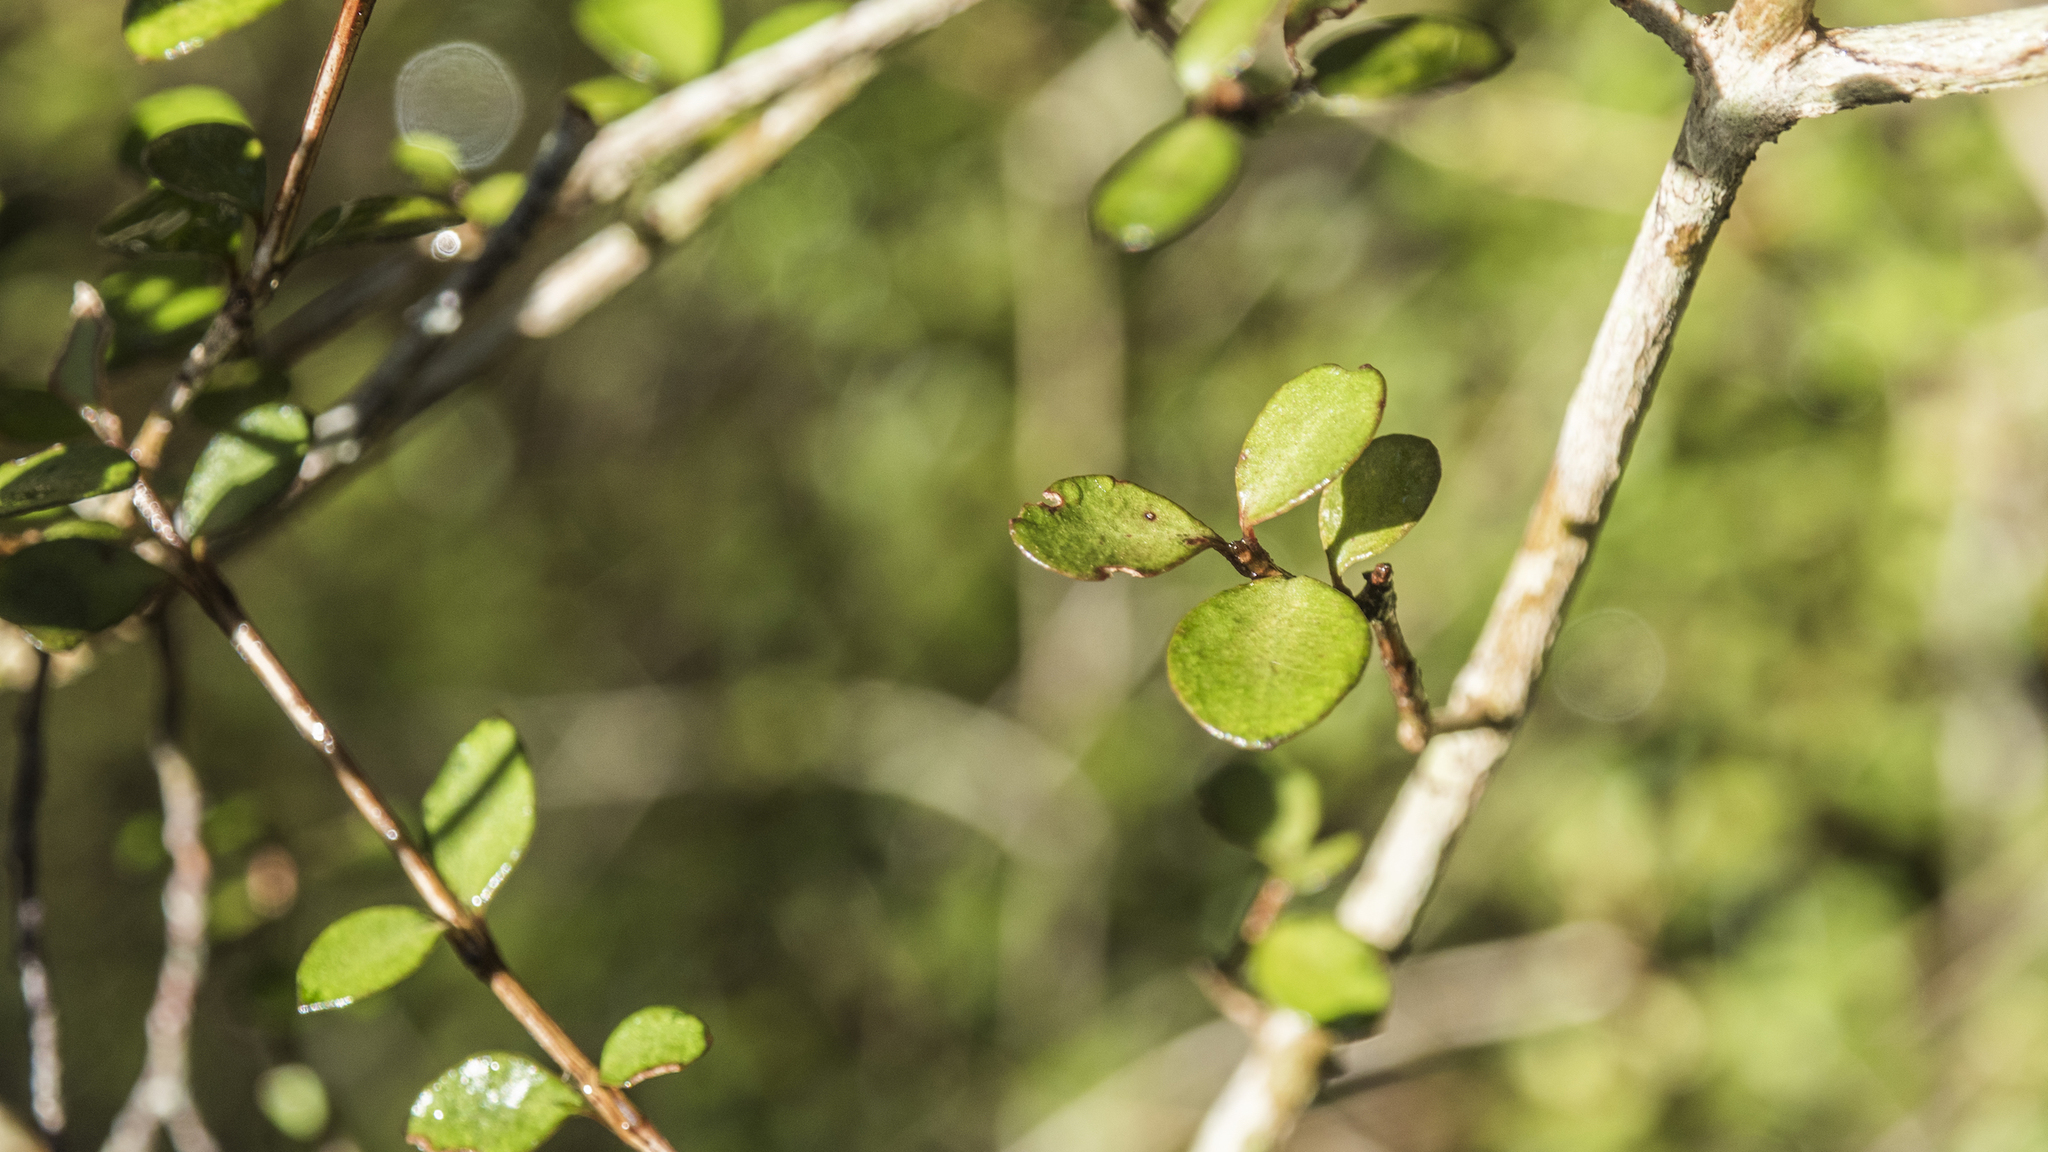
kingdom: Plantae
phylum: Tracheophyta
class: Magnoliopsida
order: Myrtales
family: Myrtaceae
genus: Neomyrtus
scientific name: Neomyrtus pedunculata
